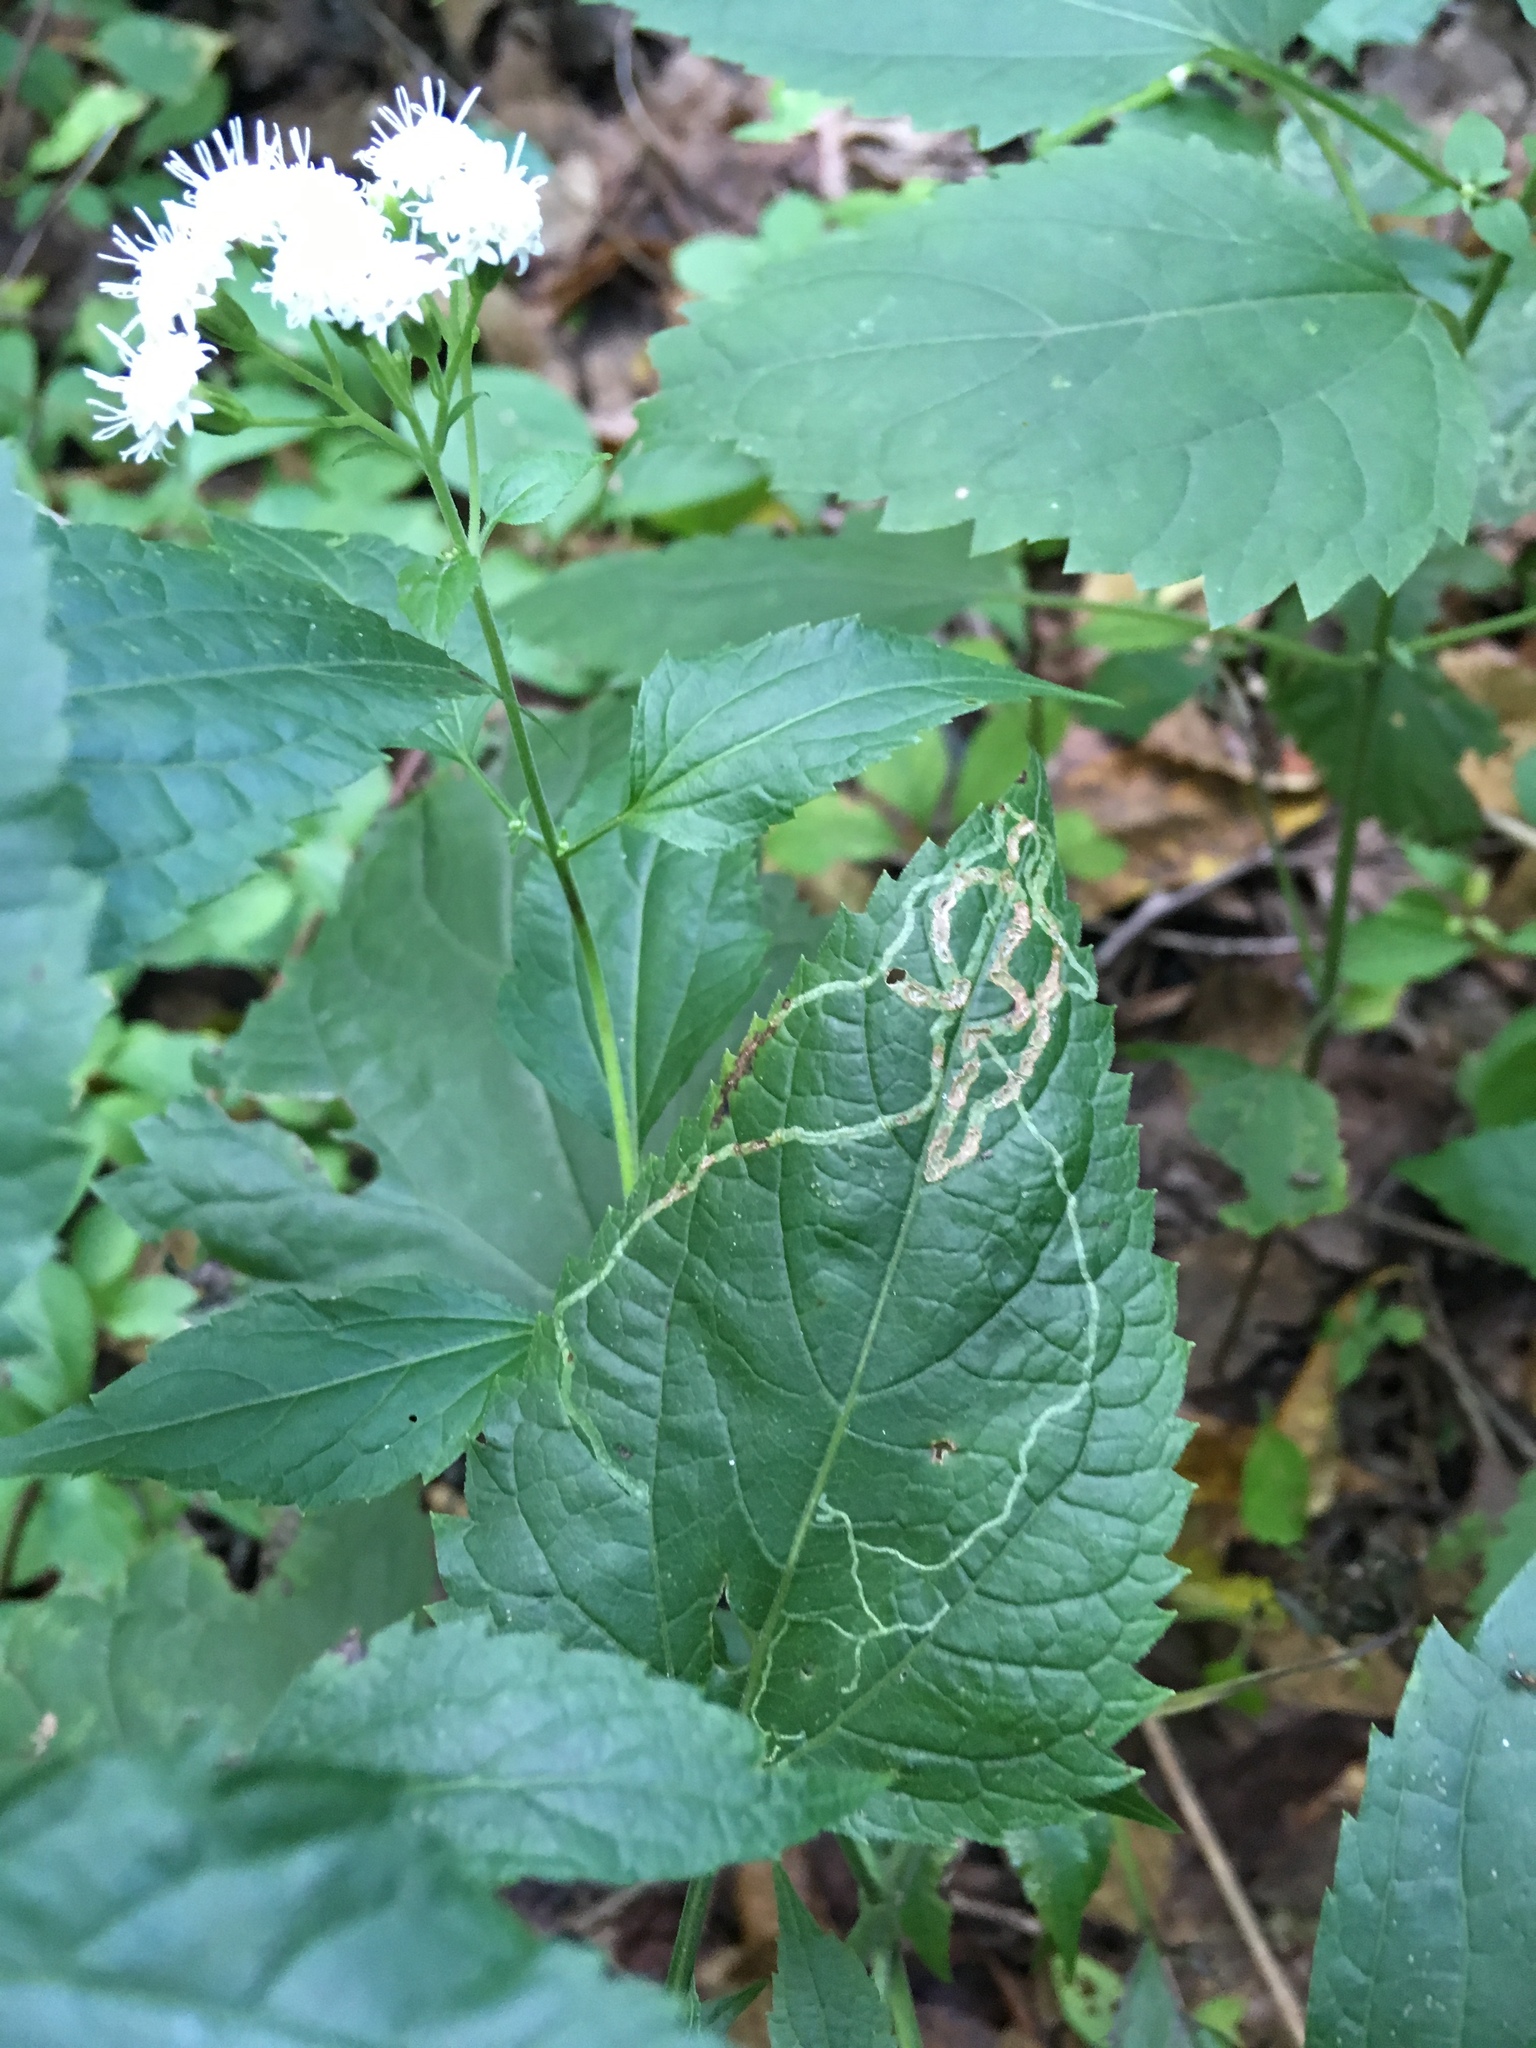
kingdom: Plantae
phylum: Tracheophyta
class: Magnoliopsida
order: Asterales
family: Asteraceae
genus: Ageratina
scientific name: Ageratina altissima
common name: White snakeroot
